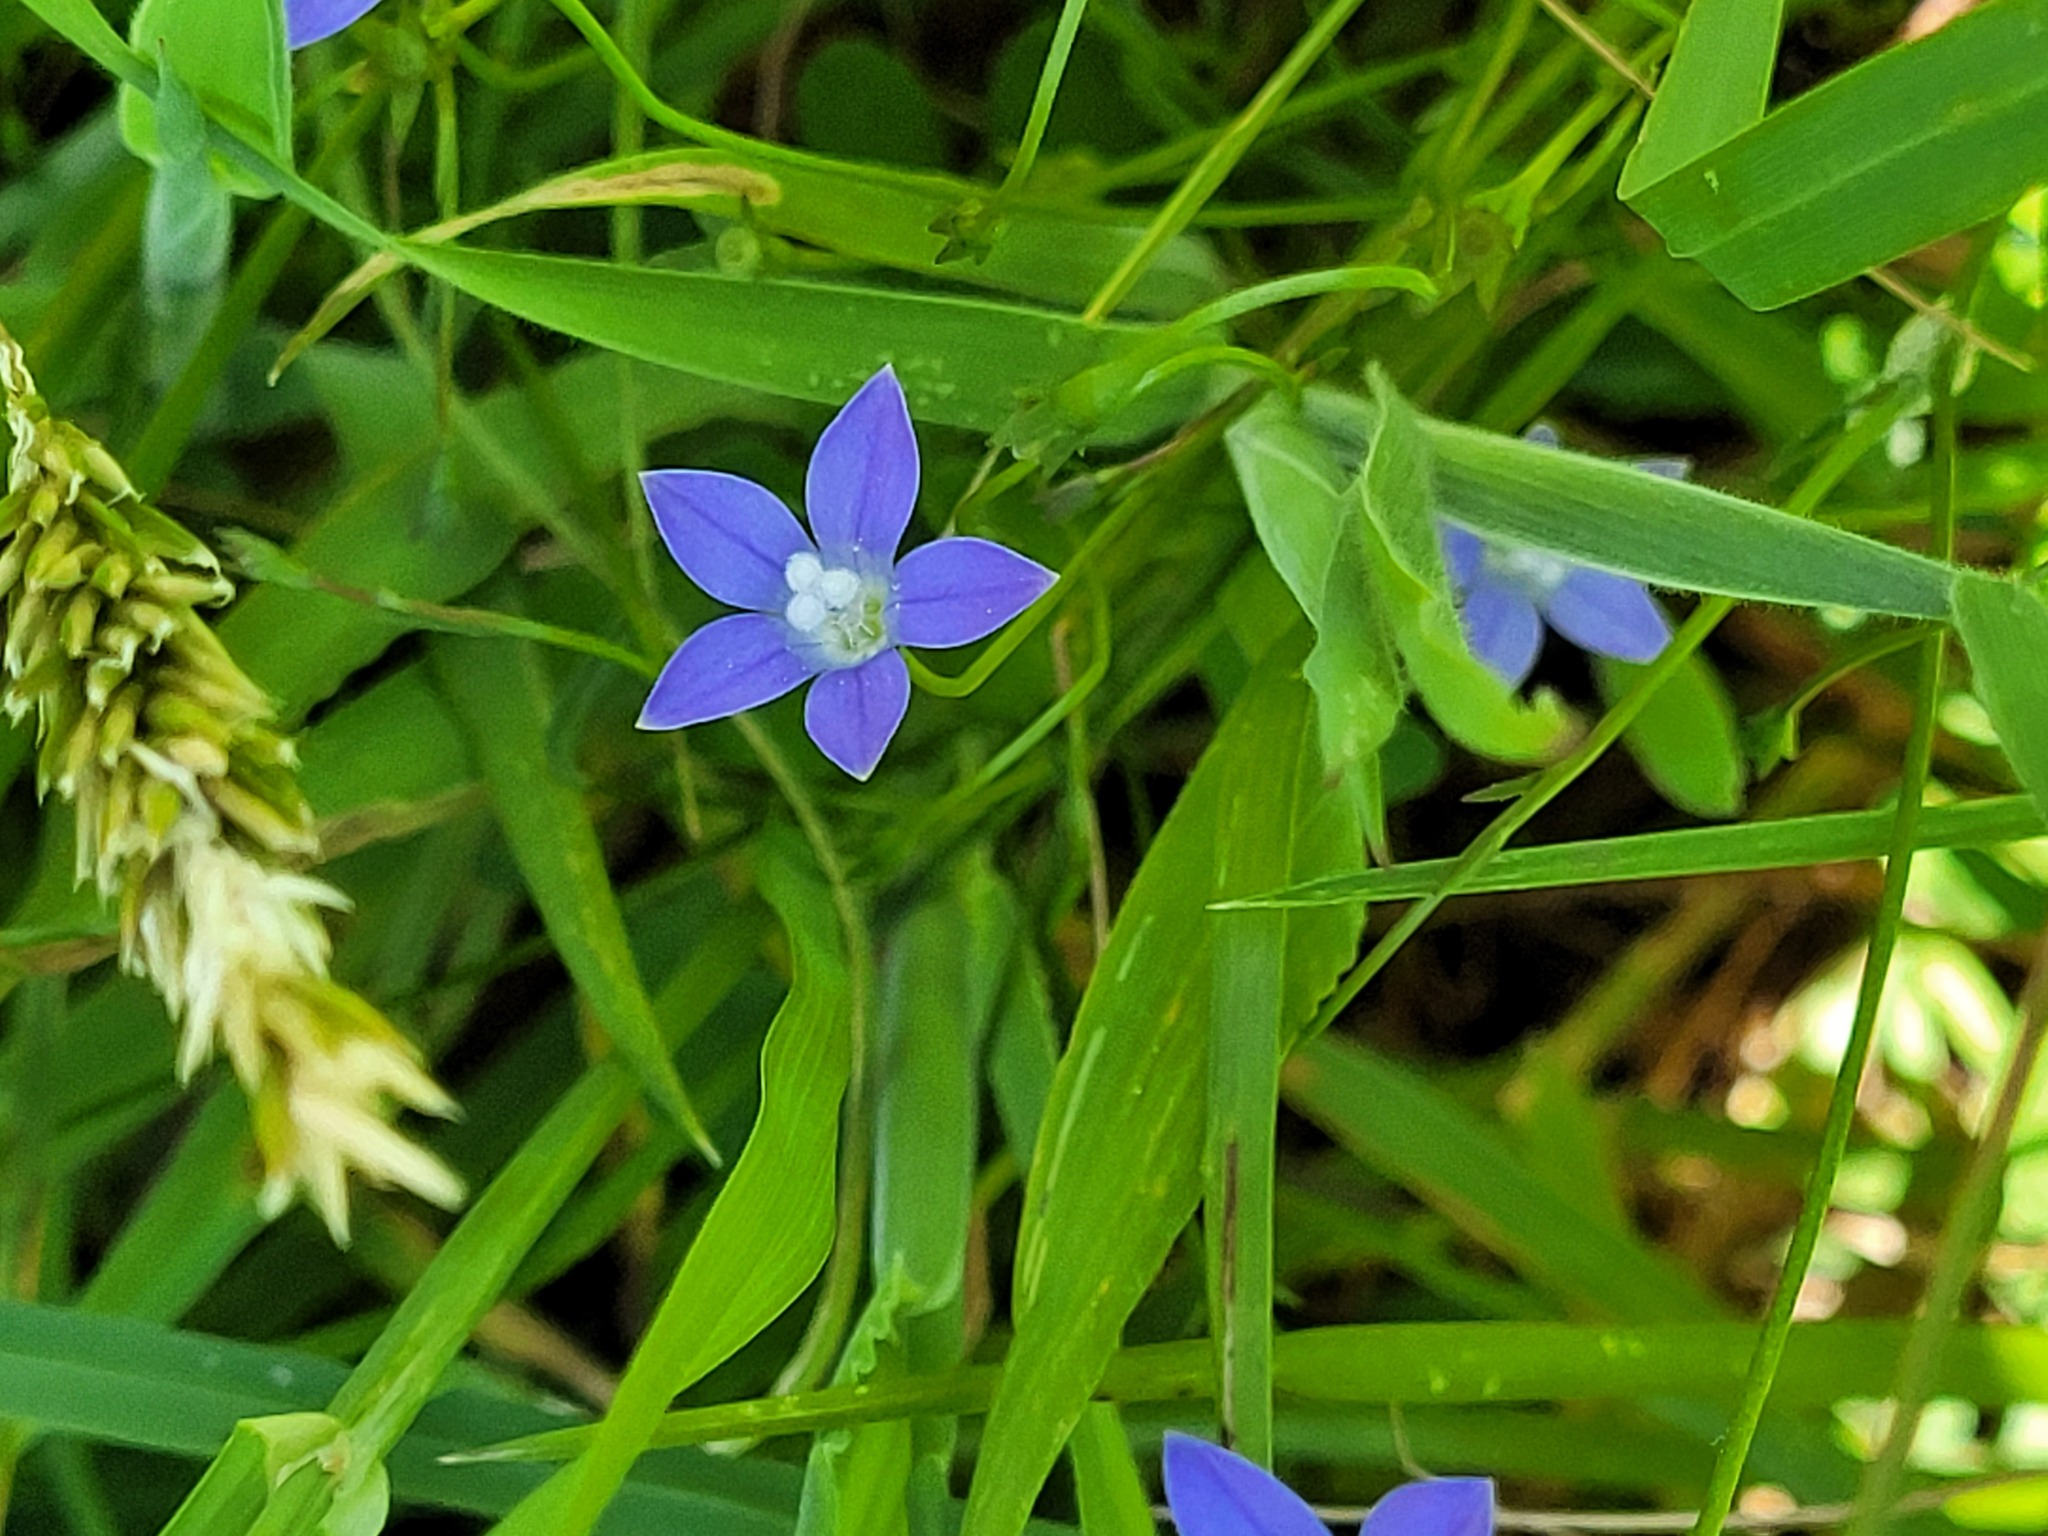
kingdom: Plantae
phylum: Tracheophyta
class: Magnoliopsida
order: Asterales
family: Campanulaceae
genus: Wahlenbergia
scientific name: Wahlenbergia violacea
